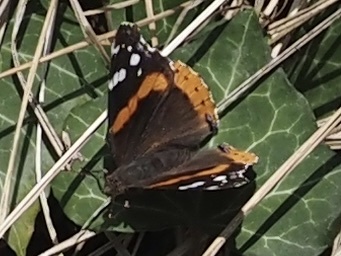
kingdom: Animalia
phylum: Arthropoda
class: Insecta
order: Lepidoptera
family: Nymphalidae
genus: Vanessa
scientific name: Vanessa atalanta
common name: Red admiral
